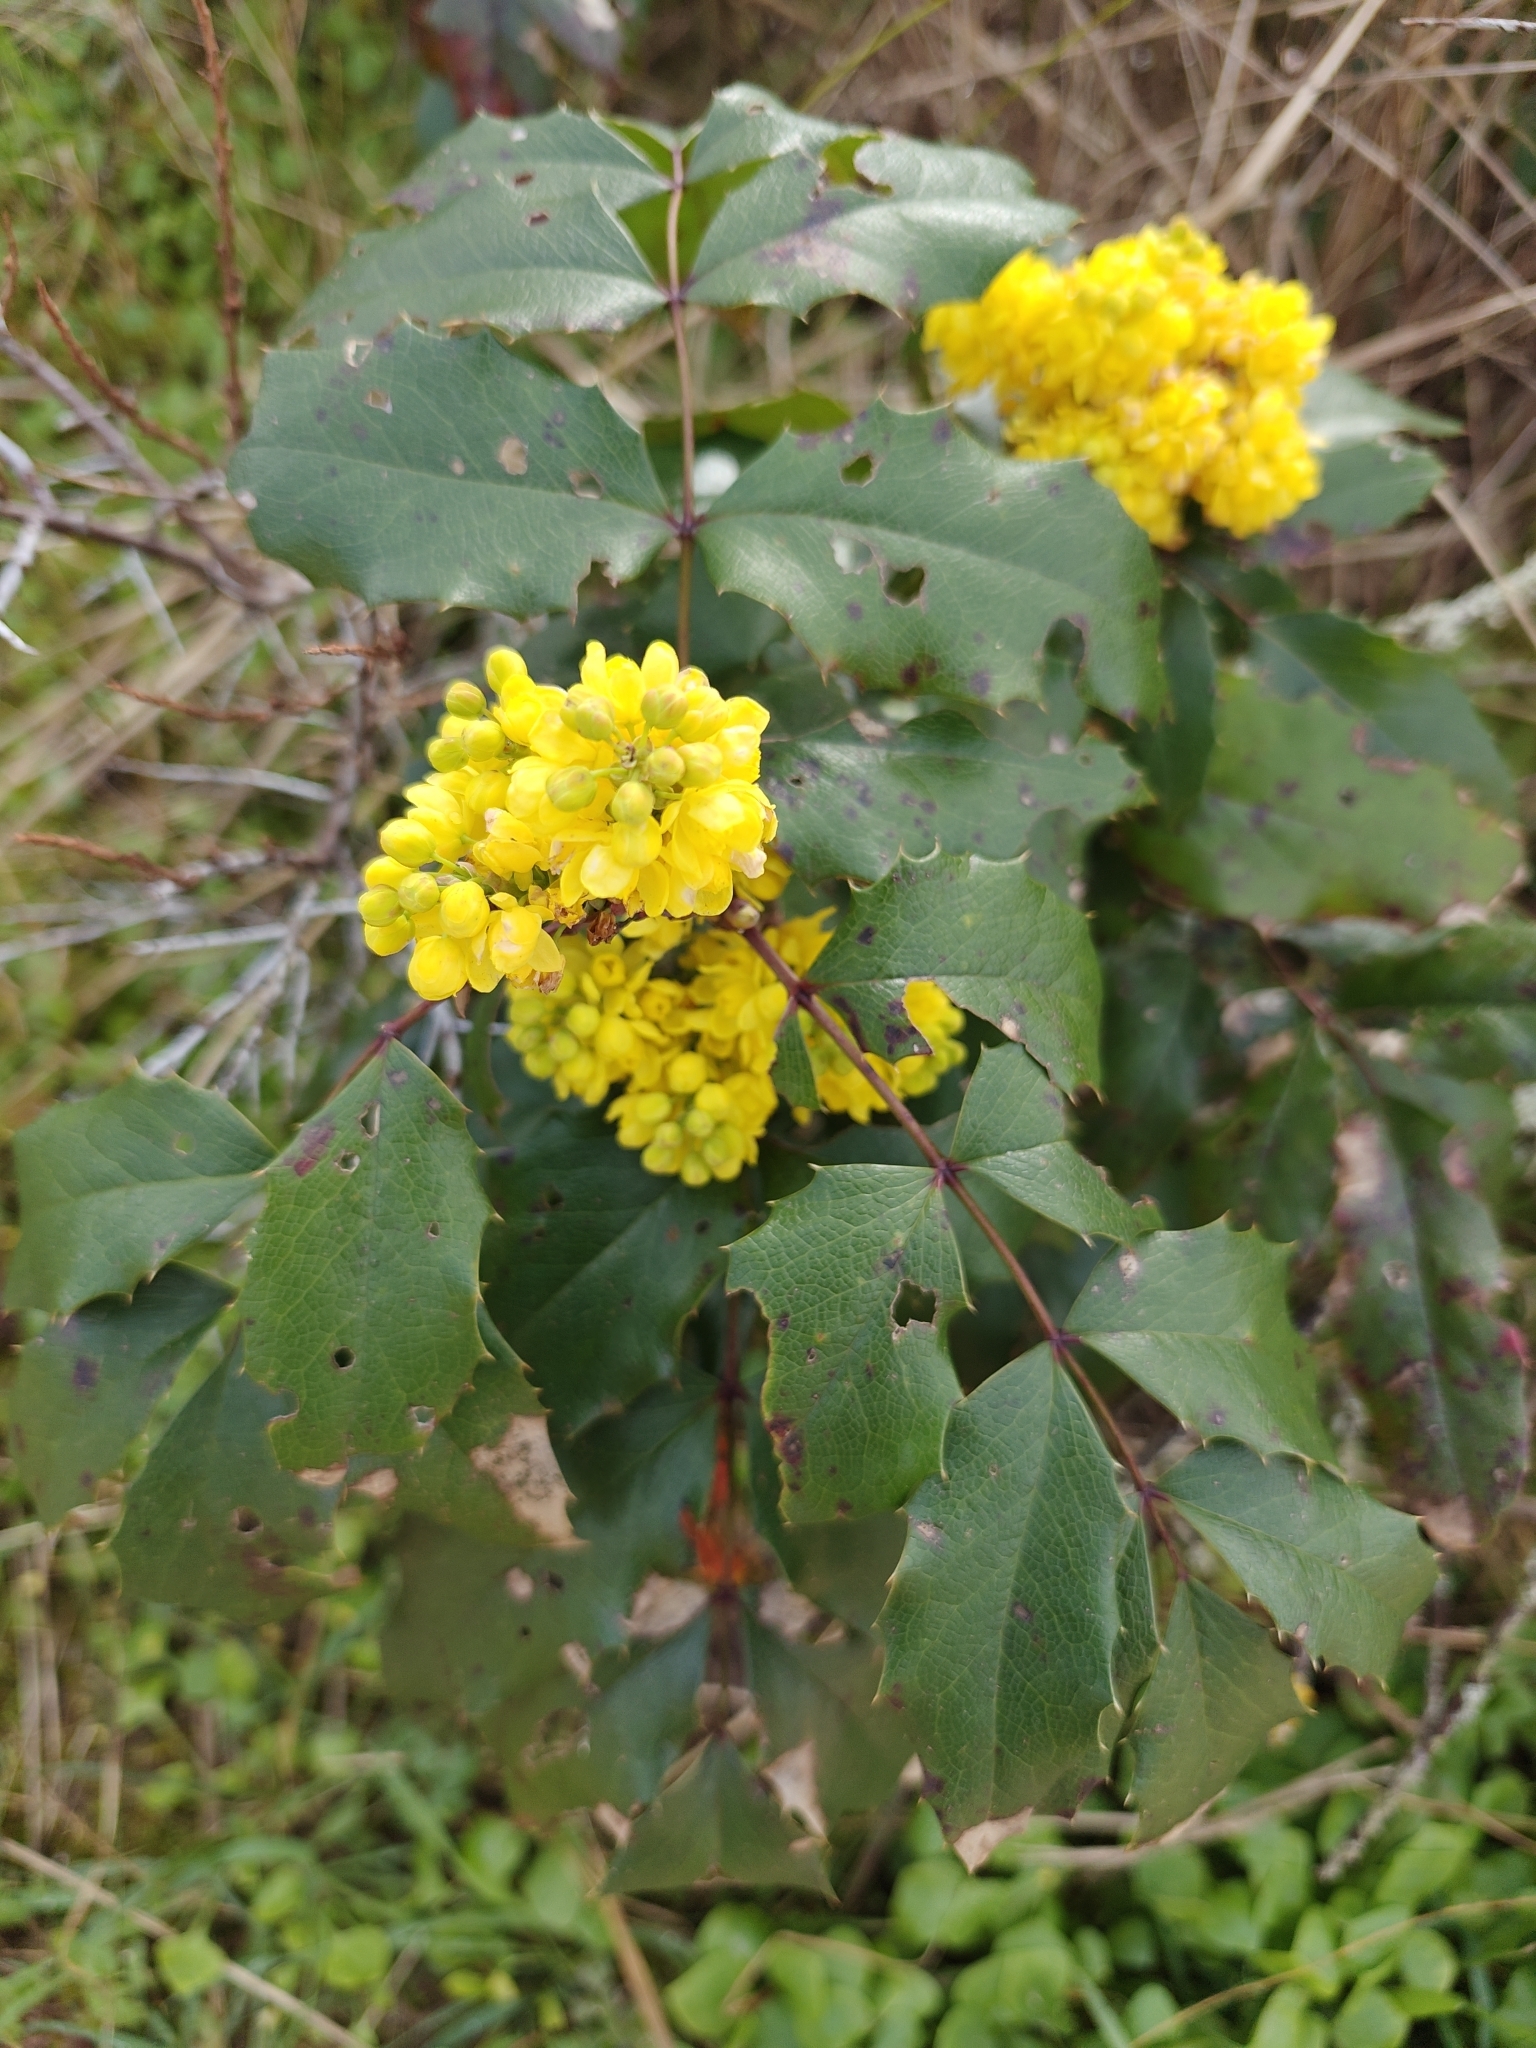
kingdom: Plantae
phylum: Tracheophyta
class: Magnoliopsida
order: Ranunculales
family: Berberidaceae
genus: Mahonia
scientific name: Mahonia aquifolium
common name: Oregon-grape
